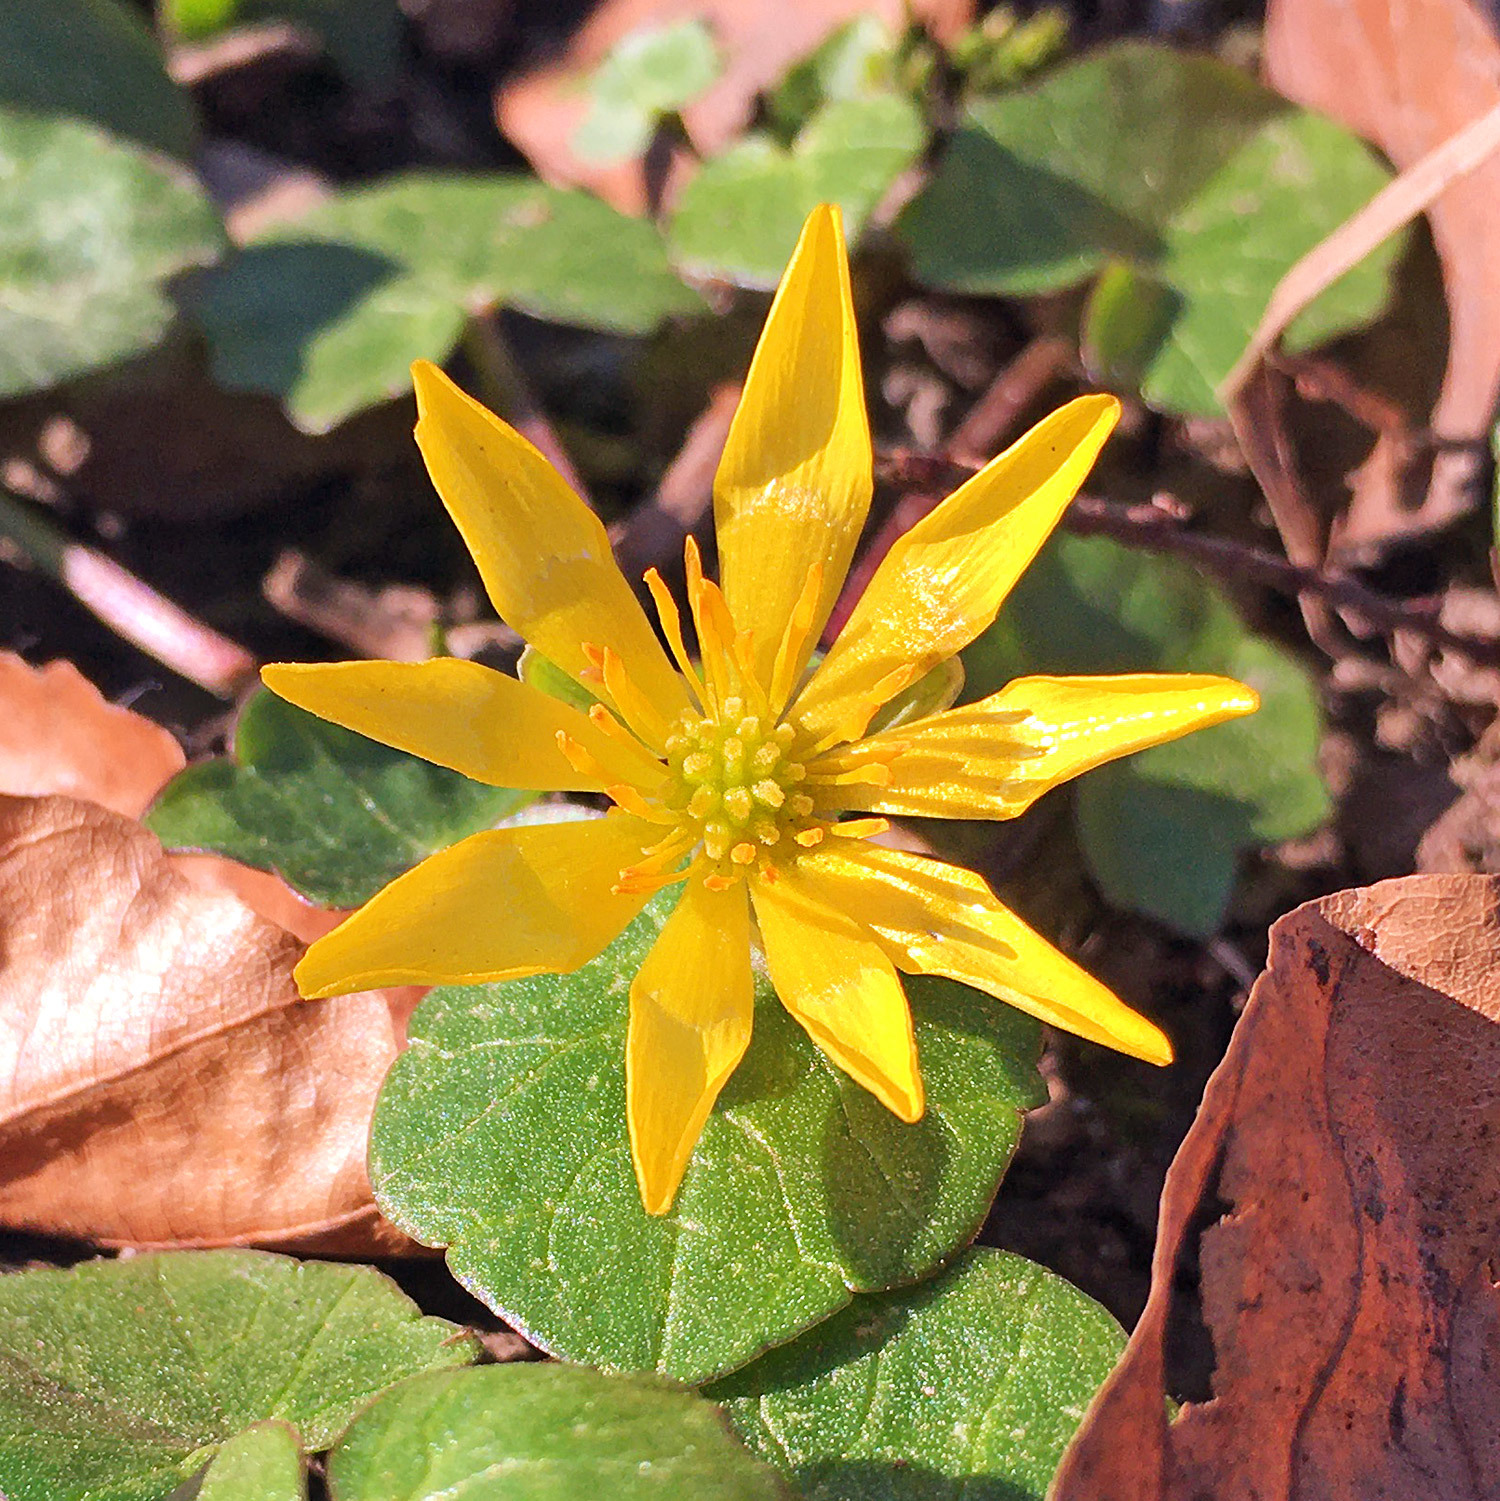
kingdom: Plantae
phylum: Tracheophyta
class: Magnoliopsida
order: Ranunculales
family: Ranunculaceae
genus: Ficaria
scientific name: Ficaria verna
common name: Lesser celandine
